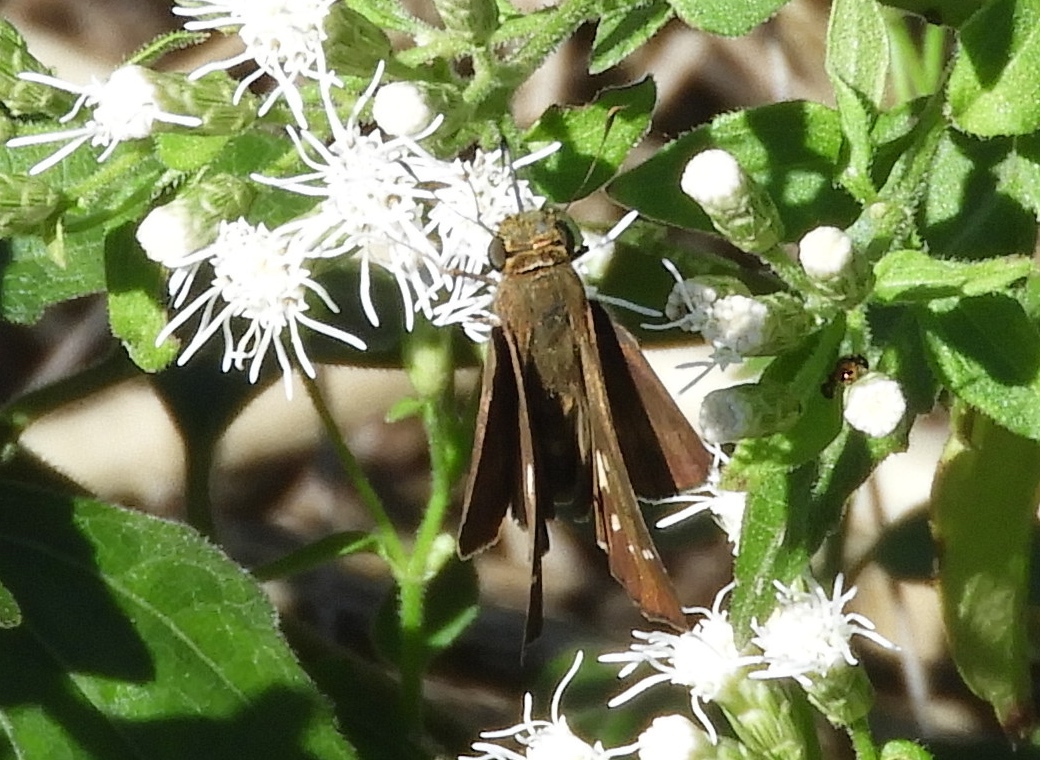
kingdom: Animalia
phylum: Arthropoda
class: Insecta
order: Lepidoptera
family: Hesperiidae
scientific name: Hesperiidae
